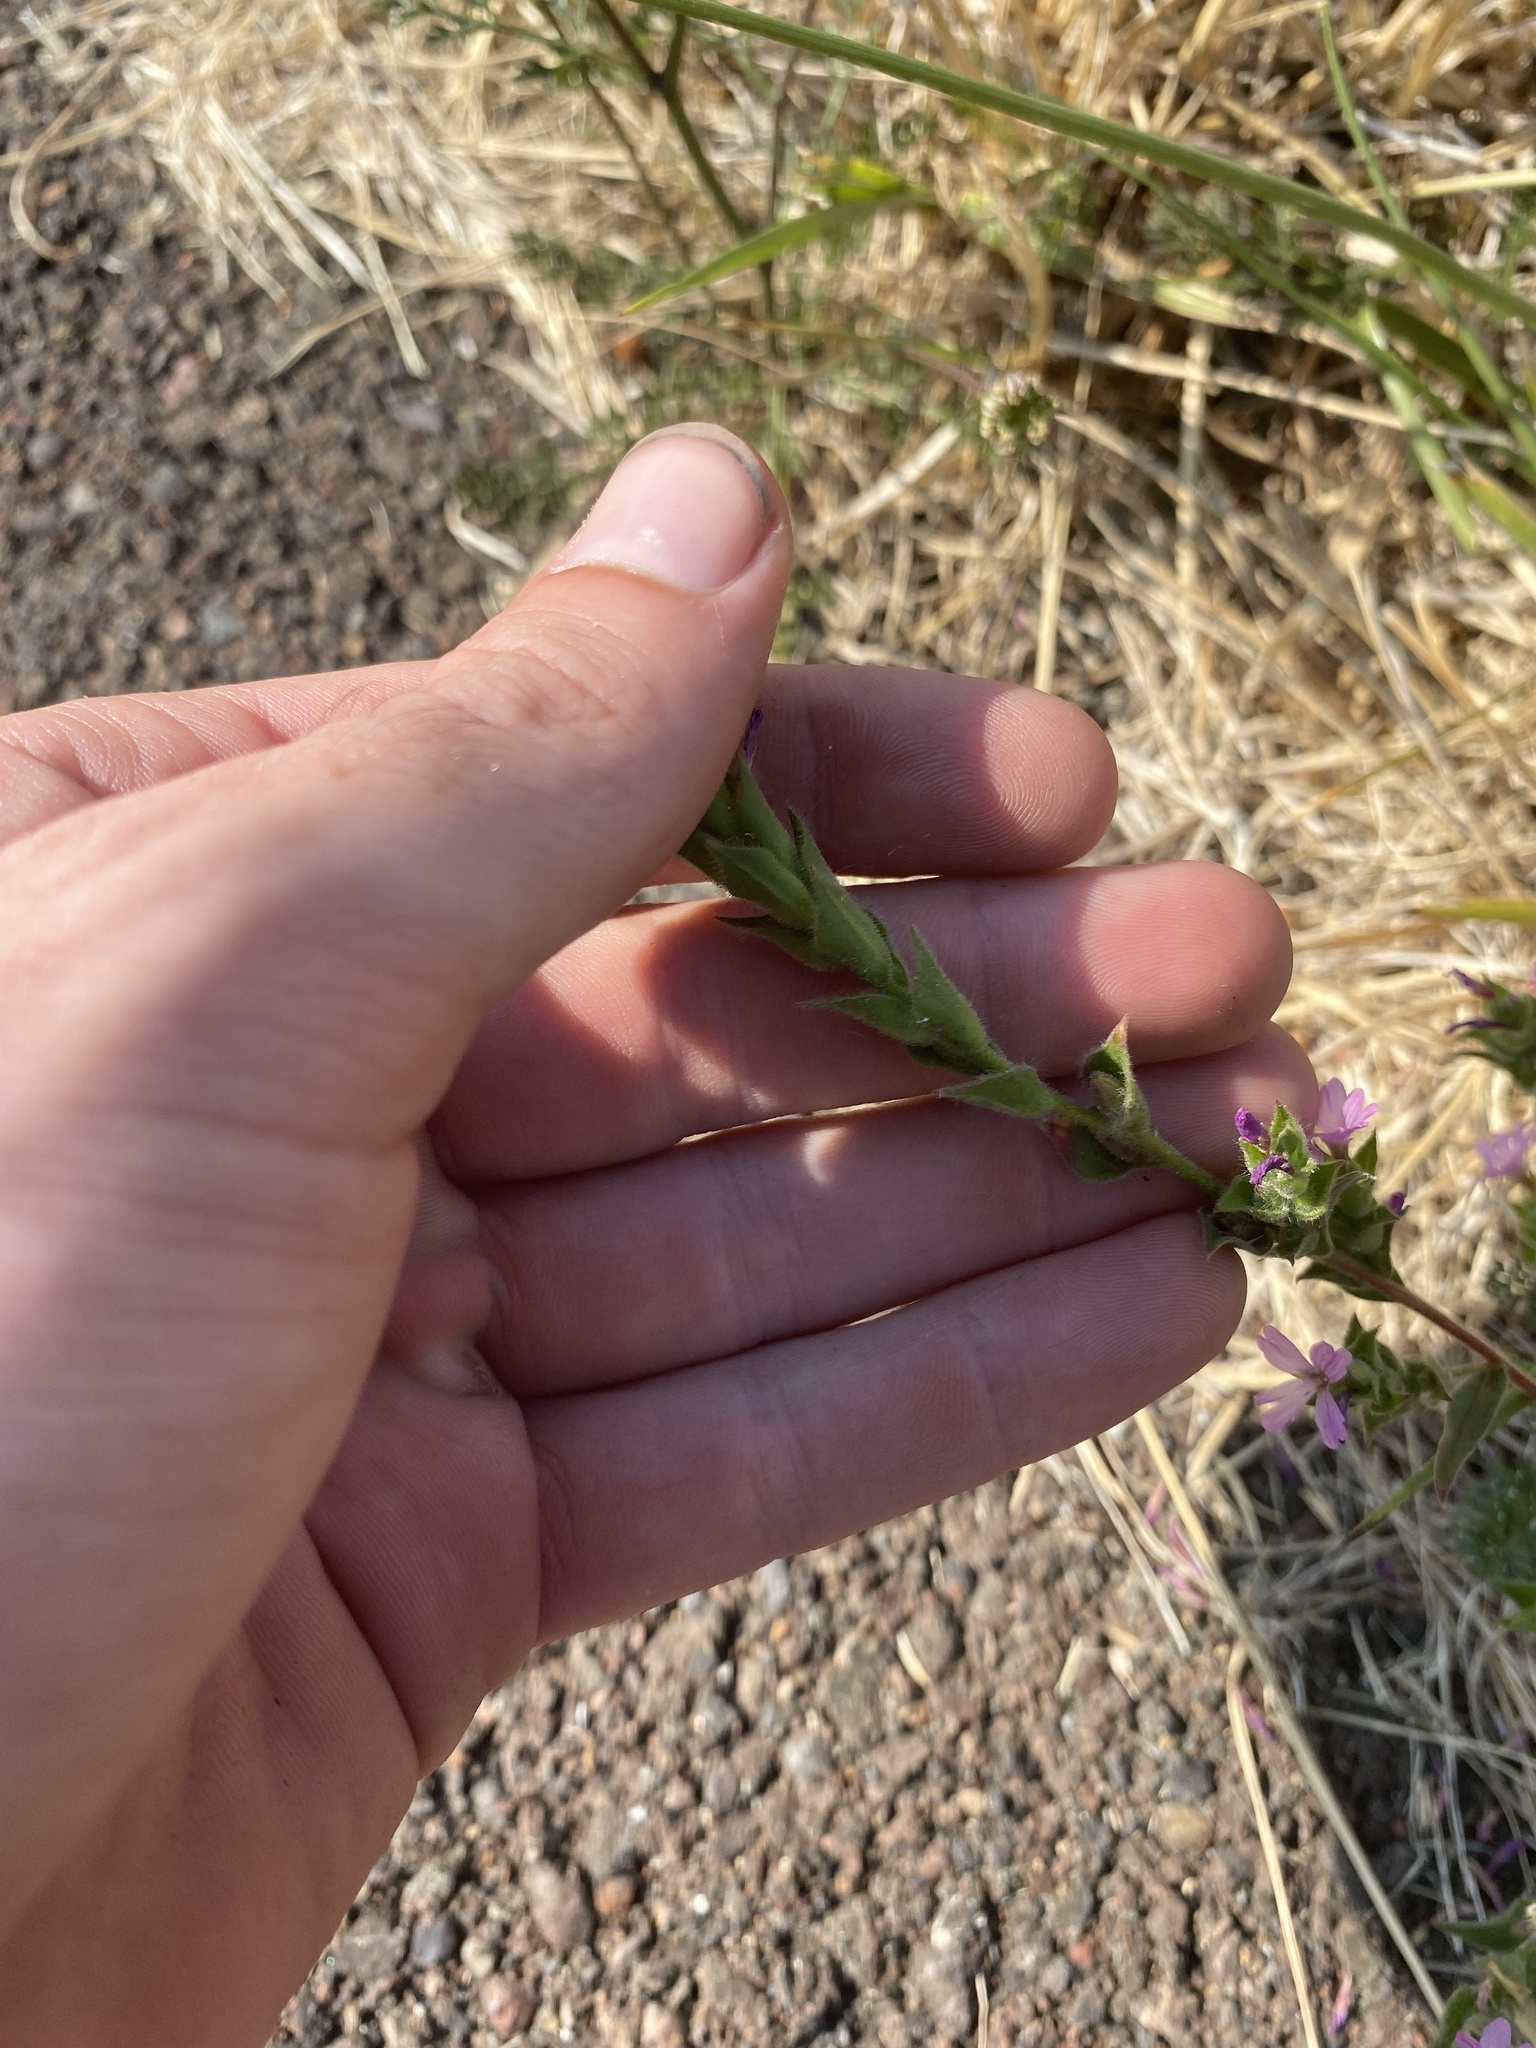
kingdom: Plantae
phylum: Tracheophyta
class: Magnoliopsida
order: Myrtales
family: Onagraceae
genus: Epilobium
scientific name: Epilobium densiflorum
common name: Dense spike-primrose
